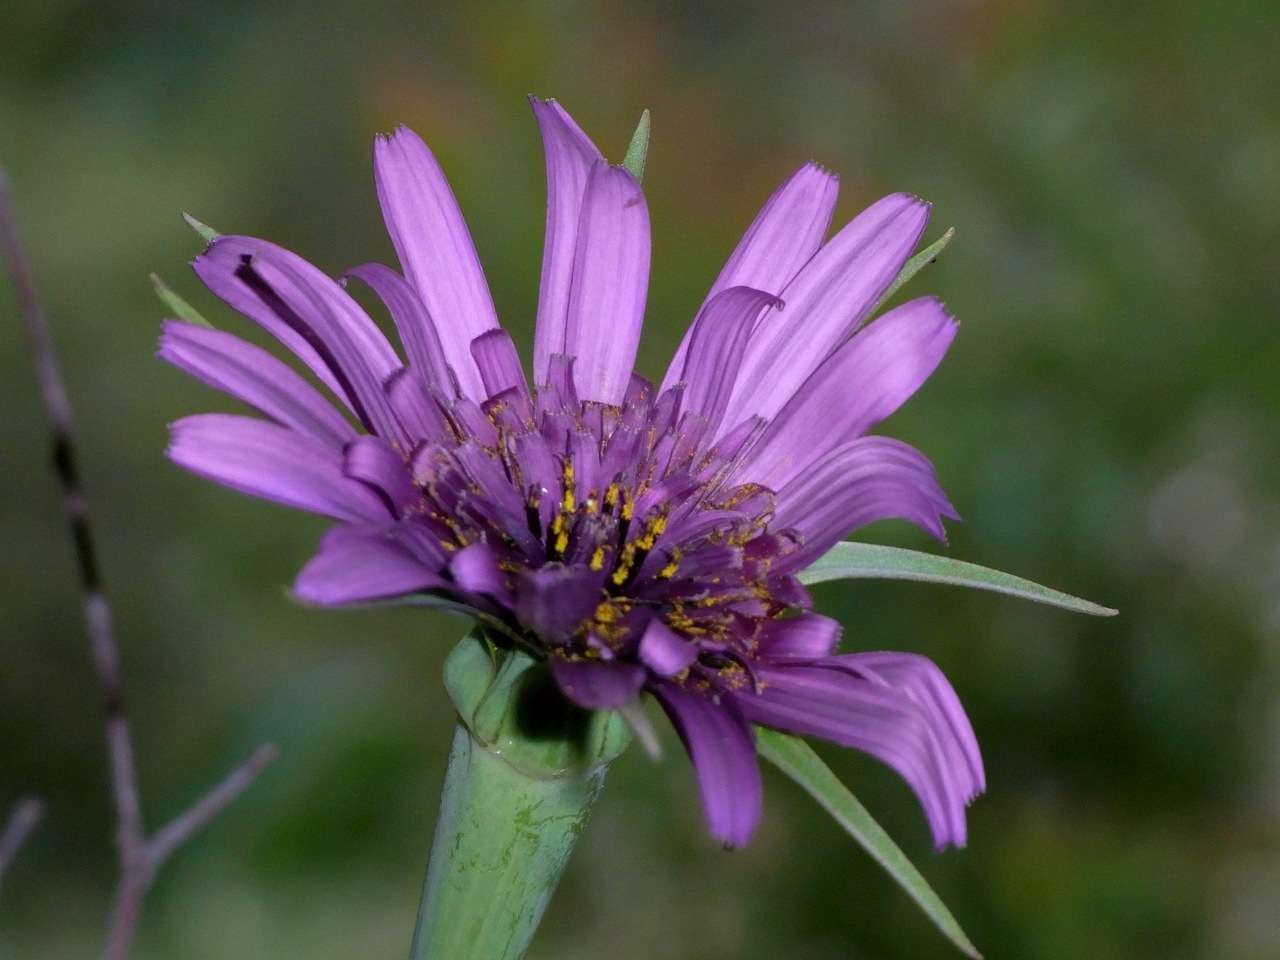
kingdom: Plantae
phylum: Tracheophyta
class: Magnoliopsida
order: Asterales
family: Asteraceae
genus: Tragopogon
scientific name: Tragopogon porrifolius
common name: Salsify
